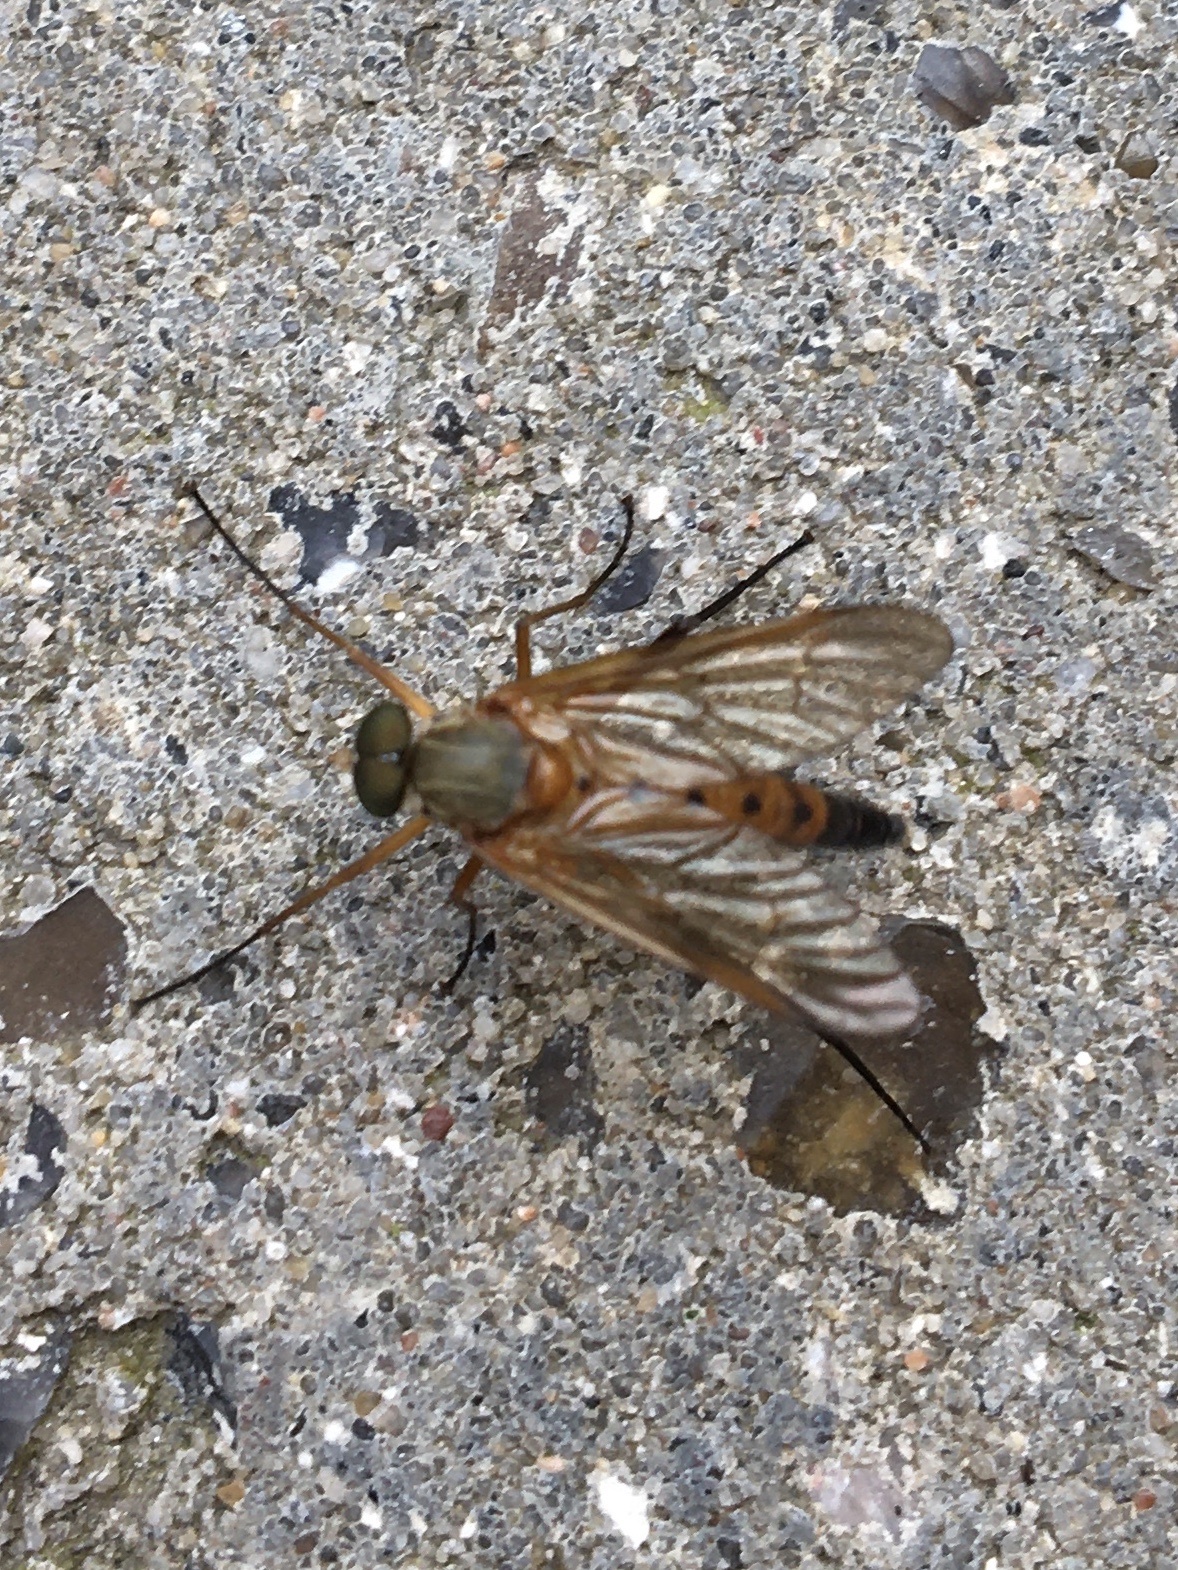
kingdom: Animalia
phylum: Arthropoda
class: Insecta
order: Diptera
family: Rhagionidae
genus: Rhagio
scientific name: Rhagio tringaria
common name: Marsh snipefly
